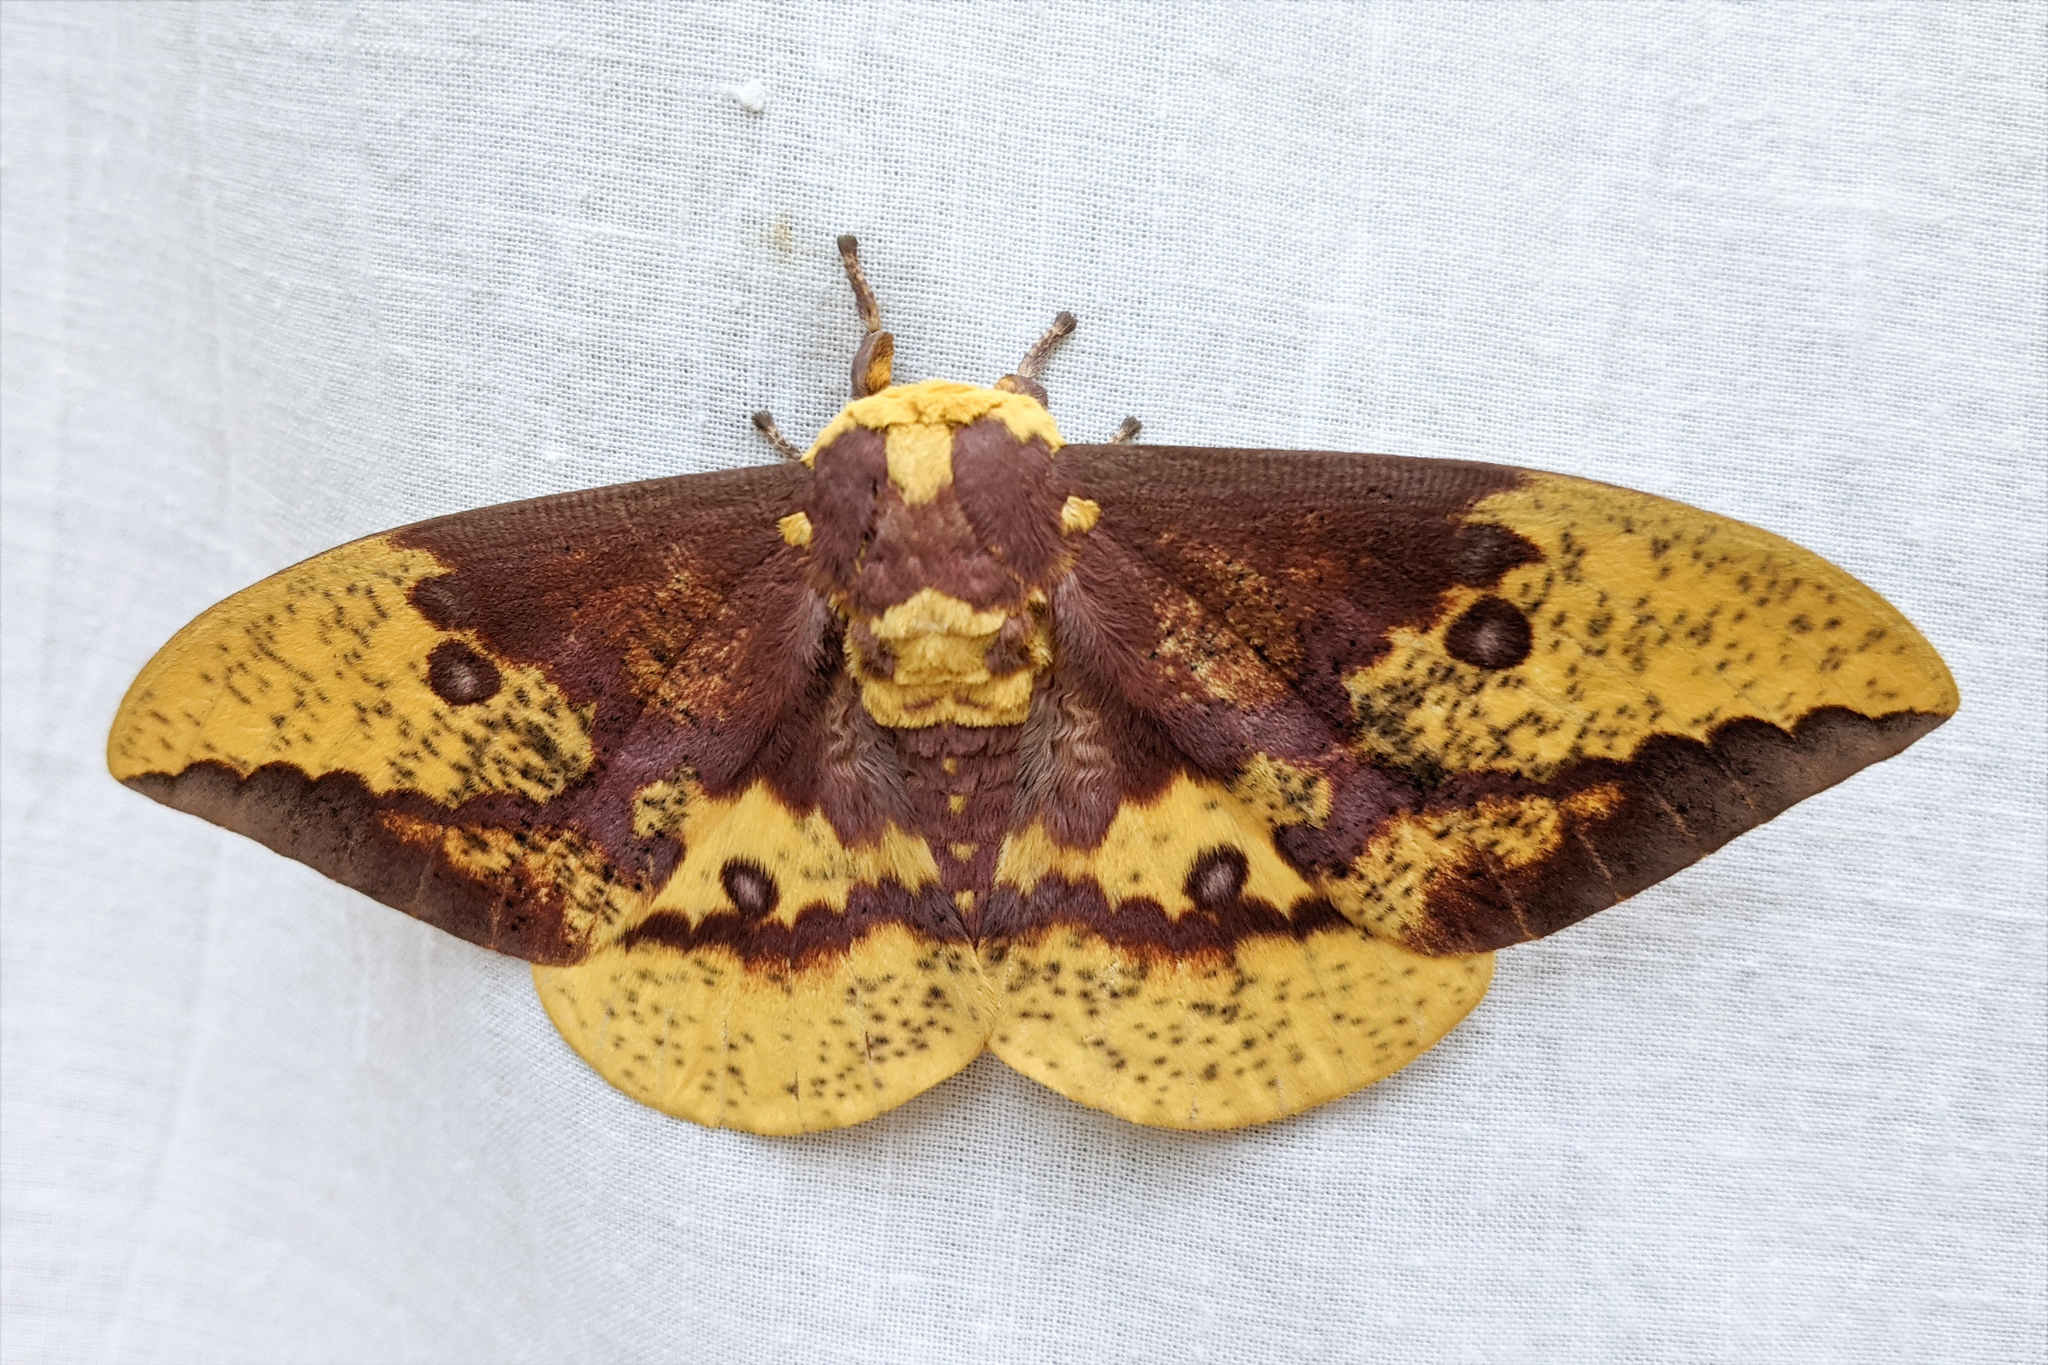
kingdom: Animalia
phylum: Arthropoda
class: Insecta
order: Lepidoptera
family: Saturniidae
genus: Eacles
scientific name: Eacles imperialis
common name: Imperial moth
